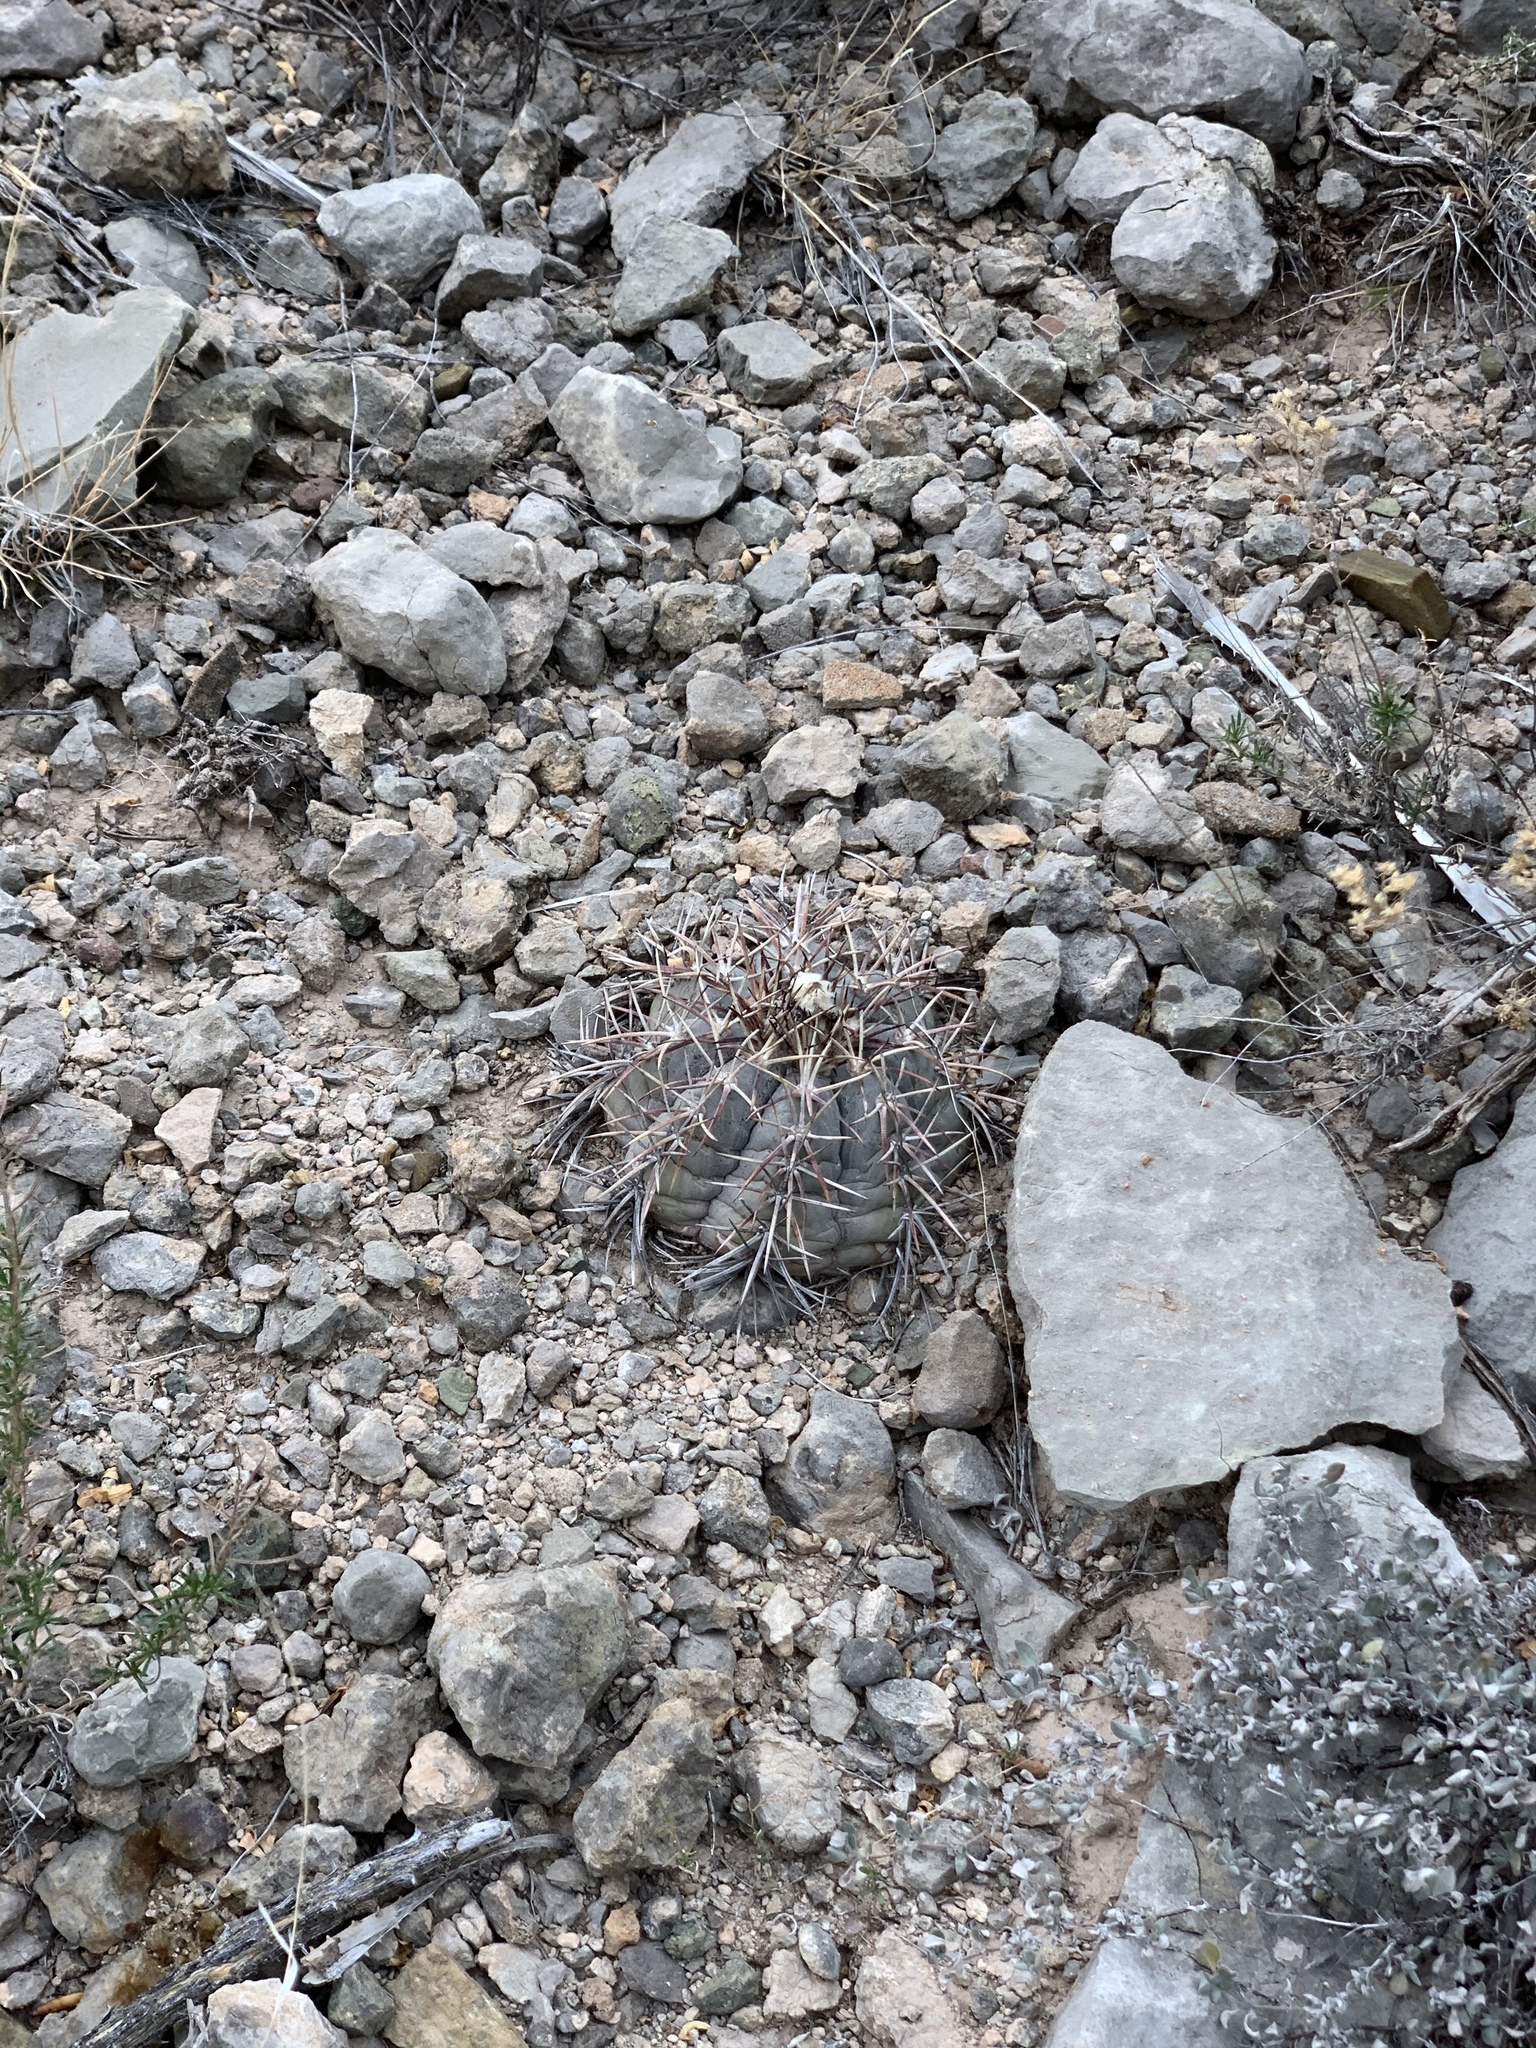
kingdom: Plantae
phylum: Tracheophyta
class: Magnoliopsida
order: Caryophyllales
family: Cactaceae
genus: Echinocactus
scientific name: Echinocactus horizonthalonius
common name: Devilshead
